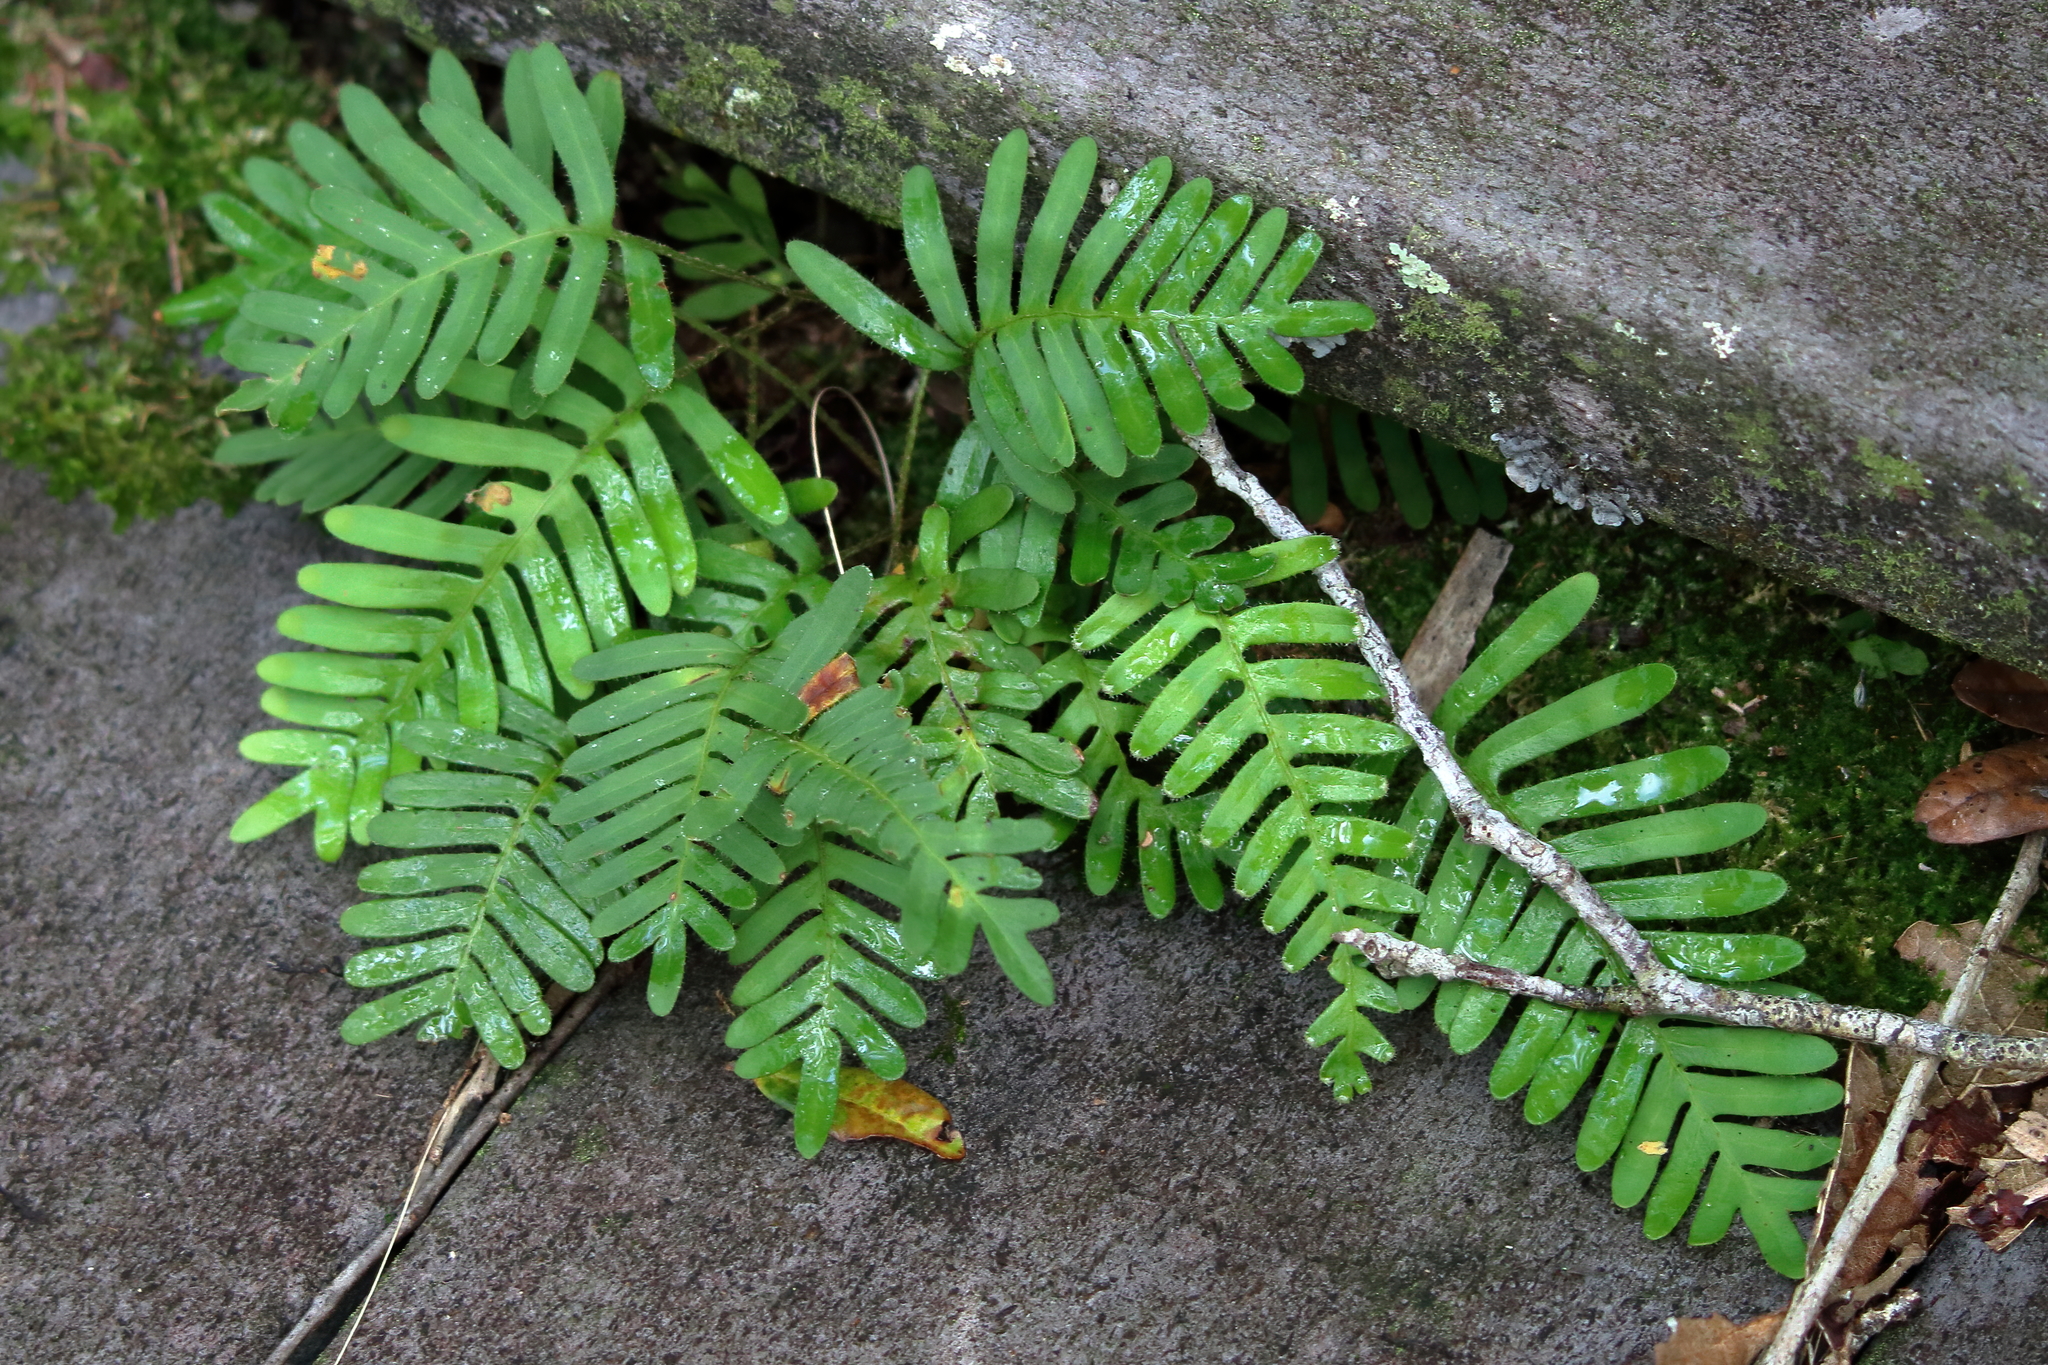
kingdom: Plantae
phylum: Tracheophyta
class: Polypodiopsida
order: Polypodiales
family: Polypodiaceae
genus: Pleopeltis
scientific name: Pleopeltis michauxiana
